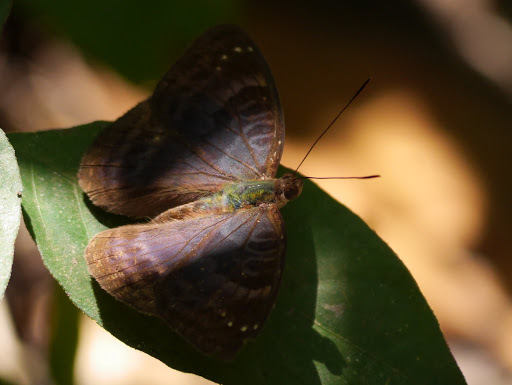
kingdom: Animalia
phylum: Arthropoda
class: Insecta
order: Lepidoptera
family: Nymphalidae
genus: Euriphene
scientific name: Euriphene tadema
